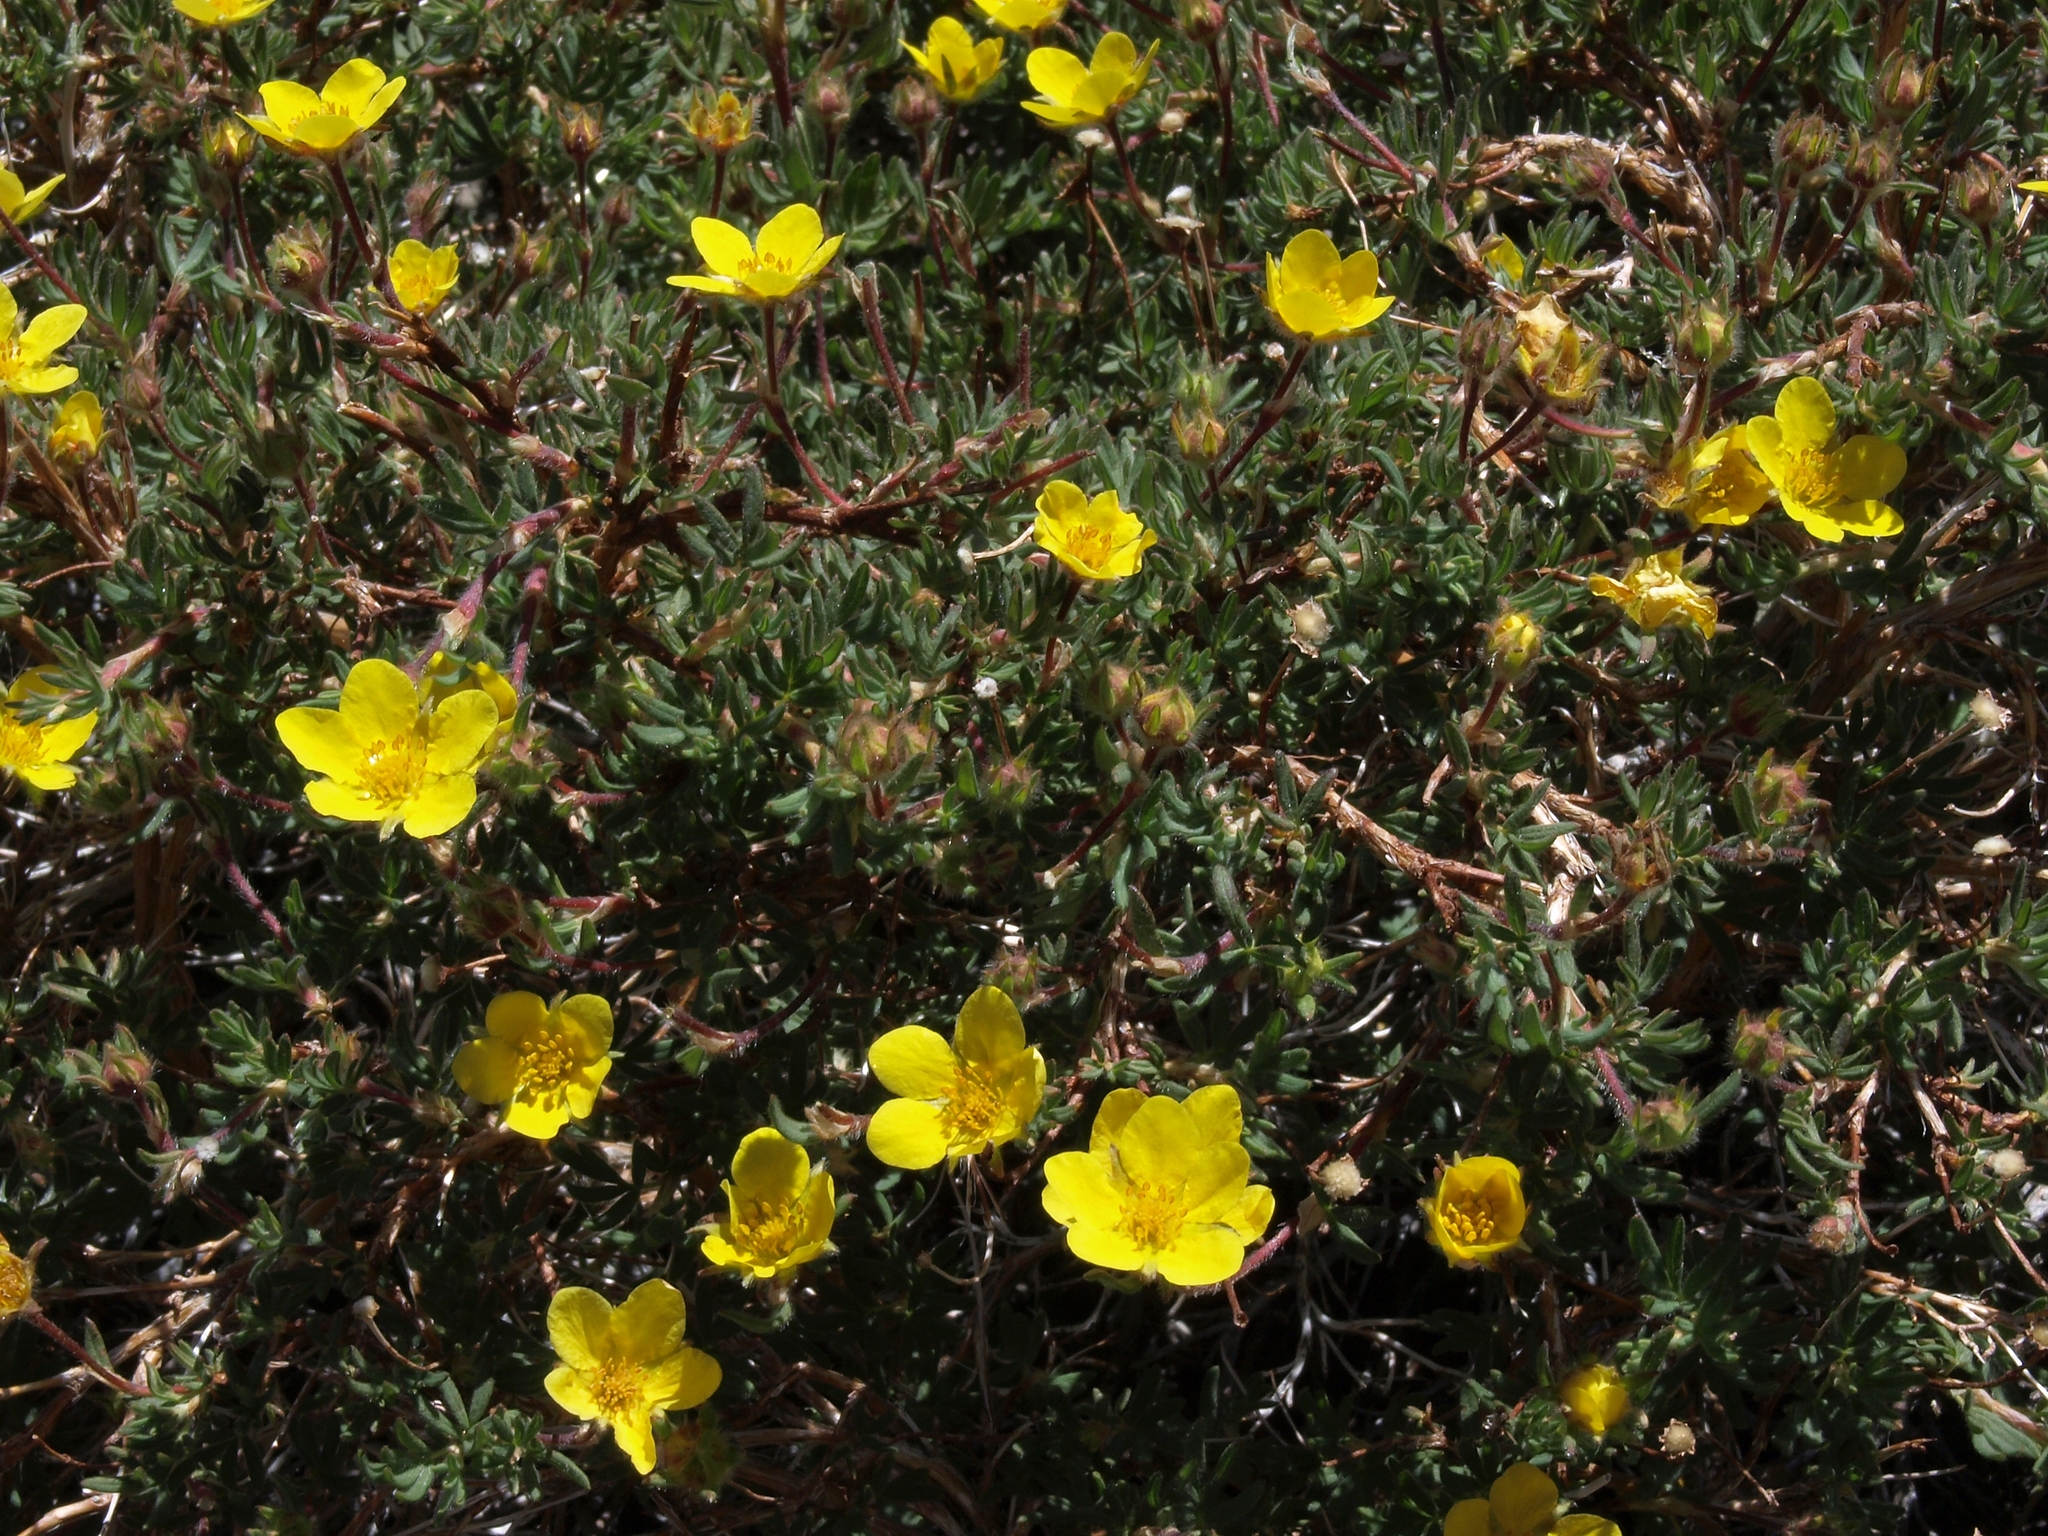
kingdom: Plantae
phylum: Tracheophyta
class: Magnoliopsida
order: Rosales
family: Rosaceae
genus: Dasiphora
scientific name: Dasiphora fruticosa
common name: Shrubby cinquefoil
